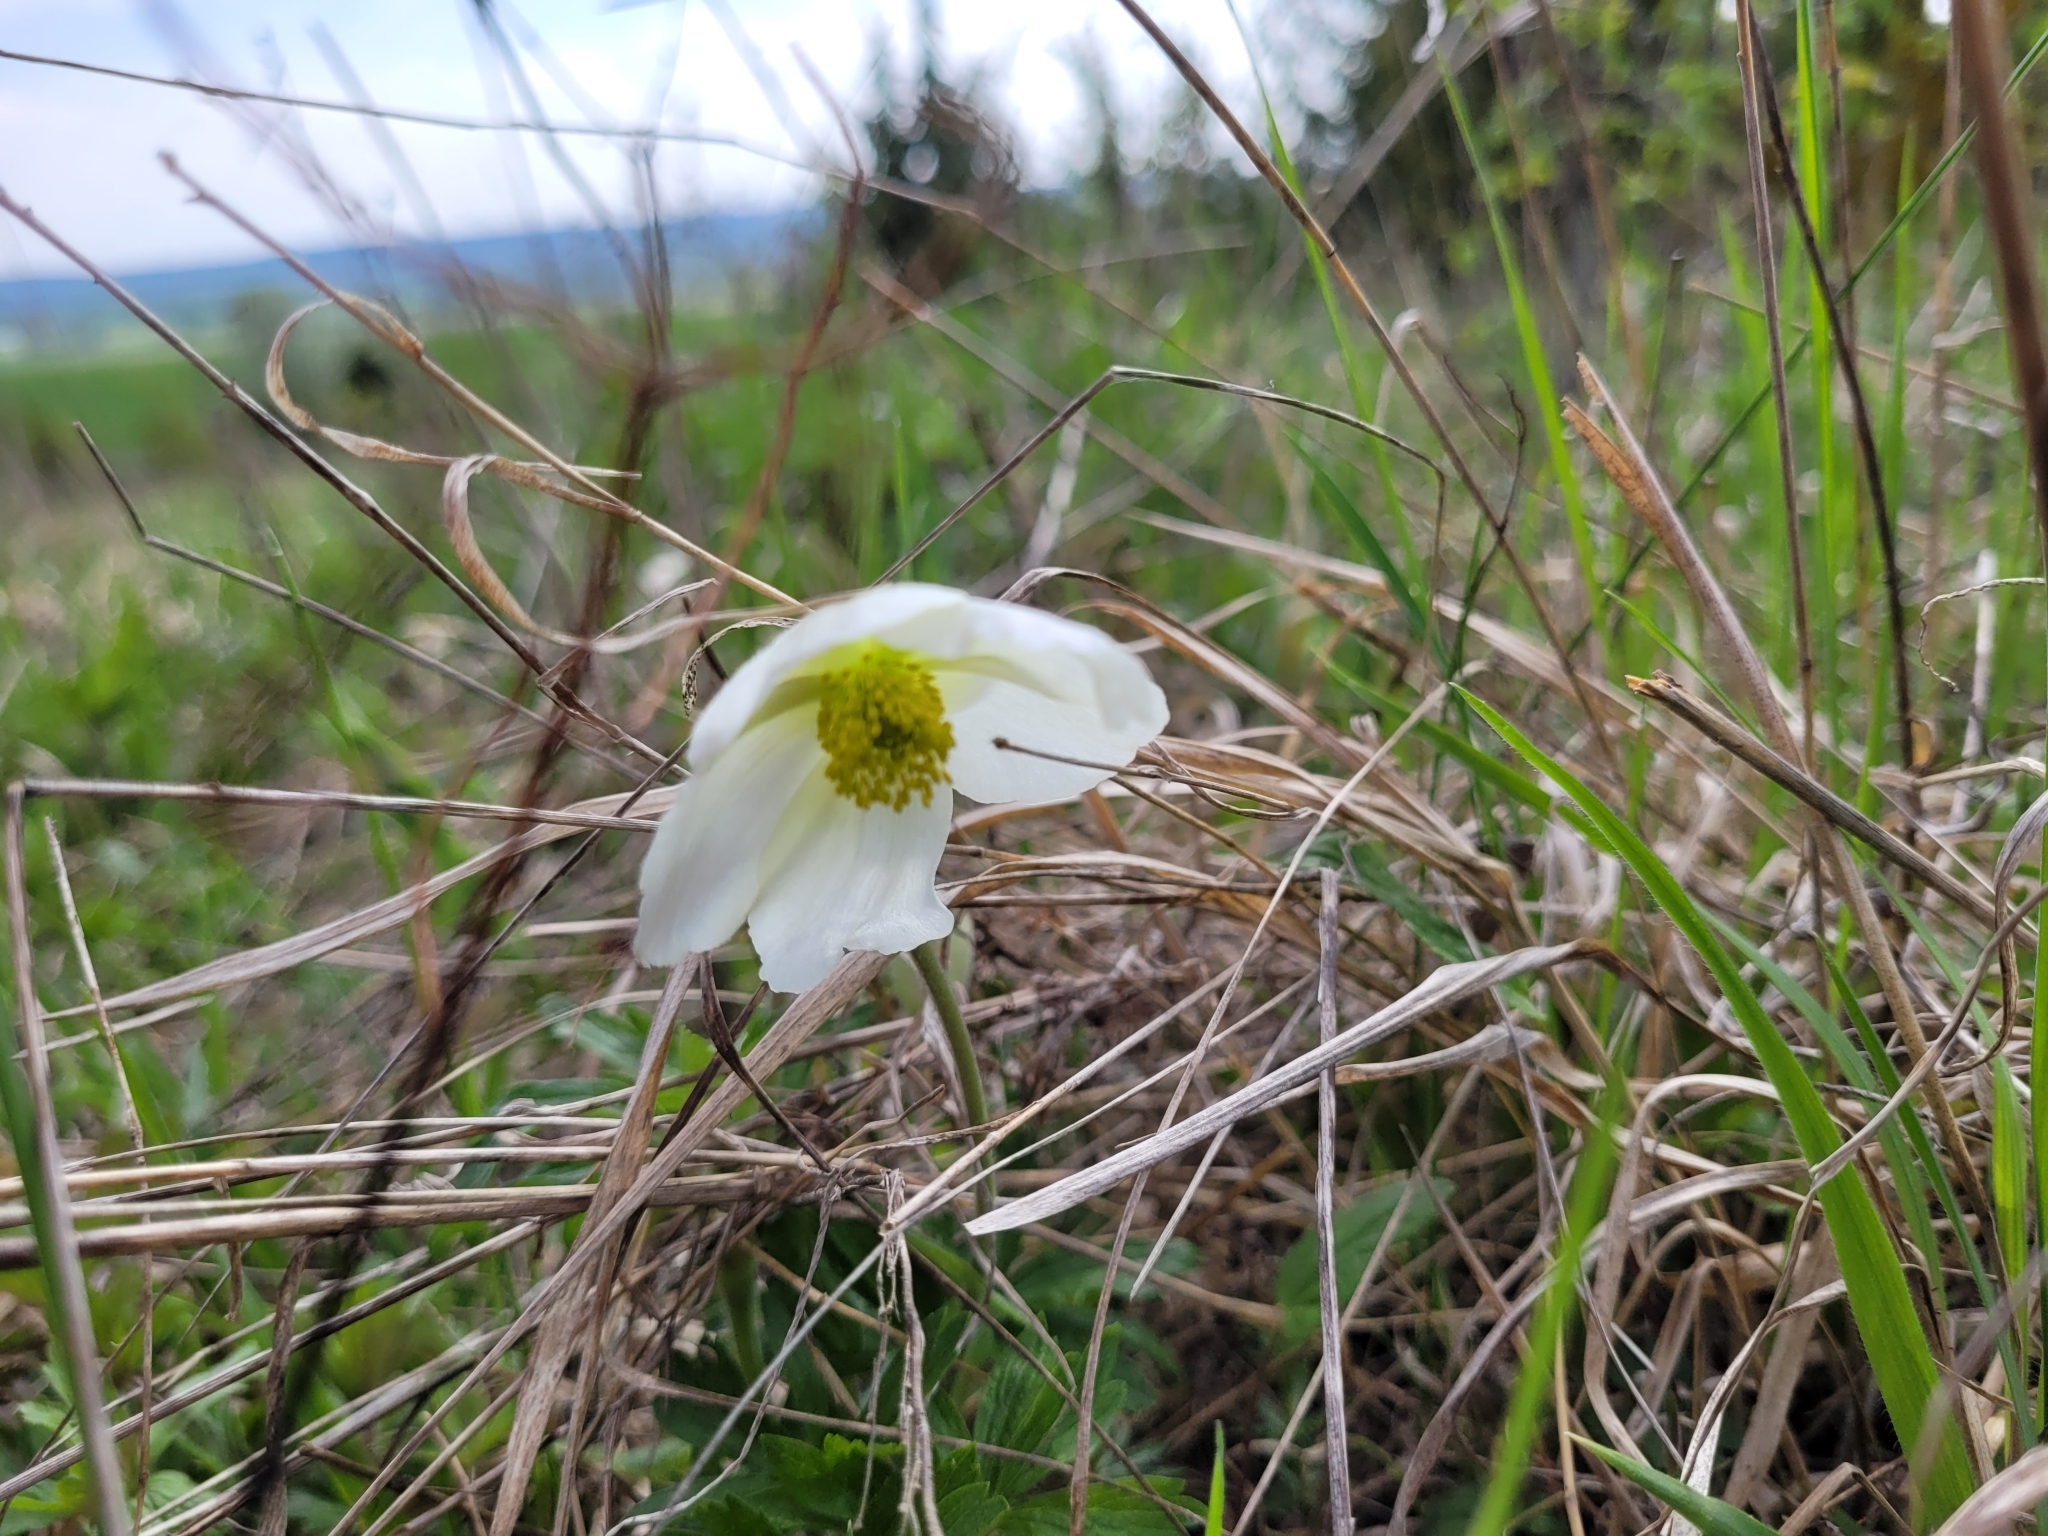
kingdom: Plantae
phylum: Tracheophyta
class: Magnoliopsida
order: Ranunculales
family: Ranunculaceae
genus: Anemone
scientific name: Anemone sylvestris
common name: Snowdrop anemone
